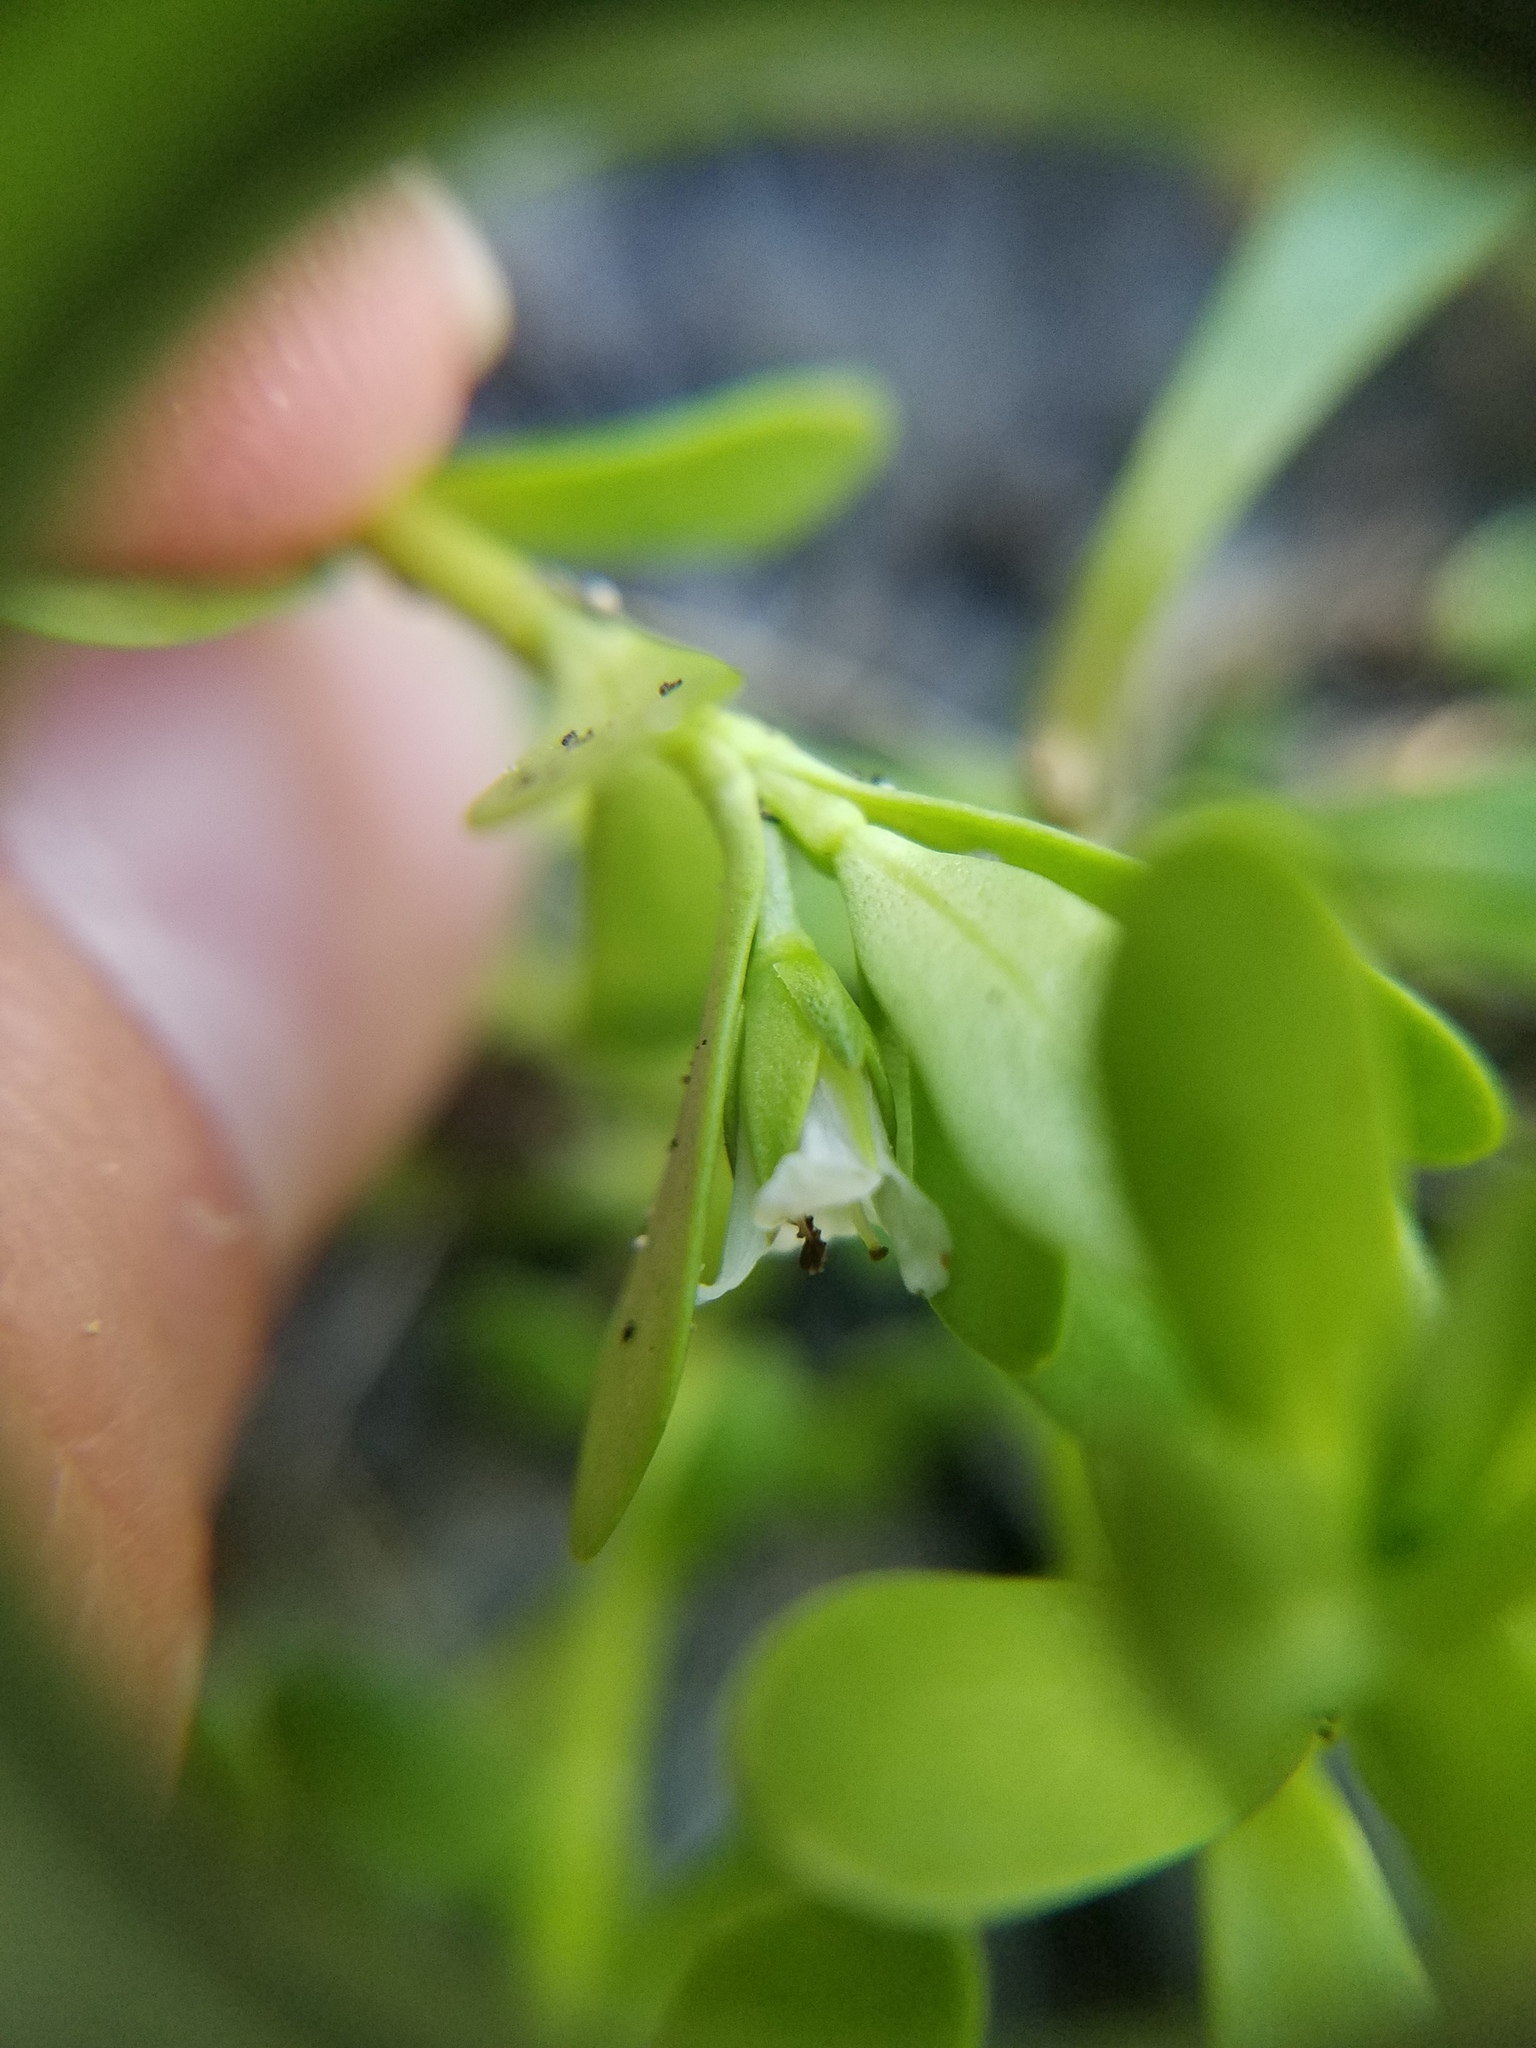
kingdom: Plantae
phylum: Tracheophyta
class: Magnoliopsida
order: Lamiales
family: Plantaginaceae
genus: Bacopa
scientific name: Bacopa monnieri
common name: Indian-pennywort
